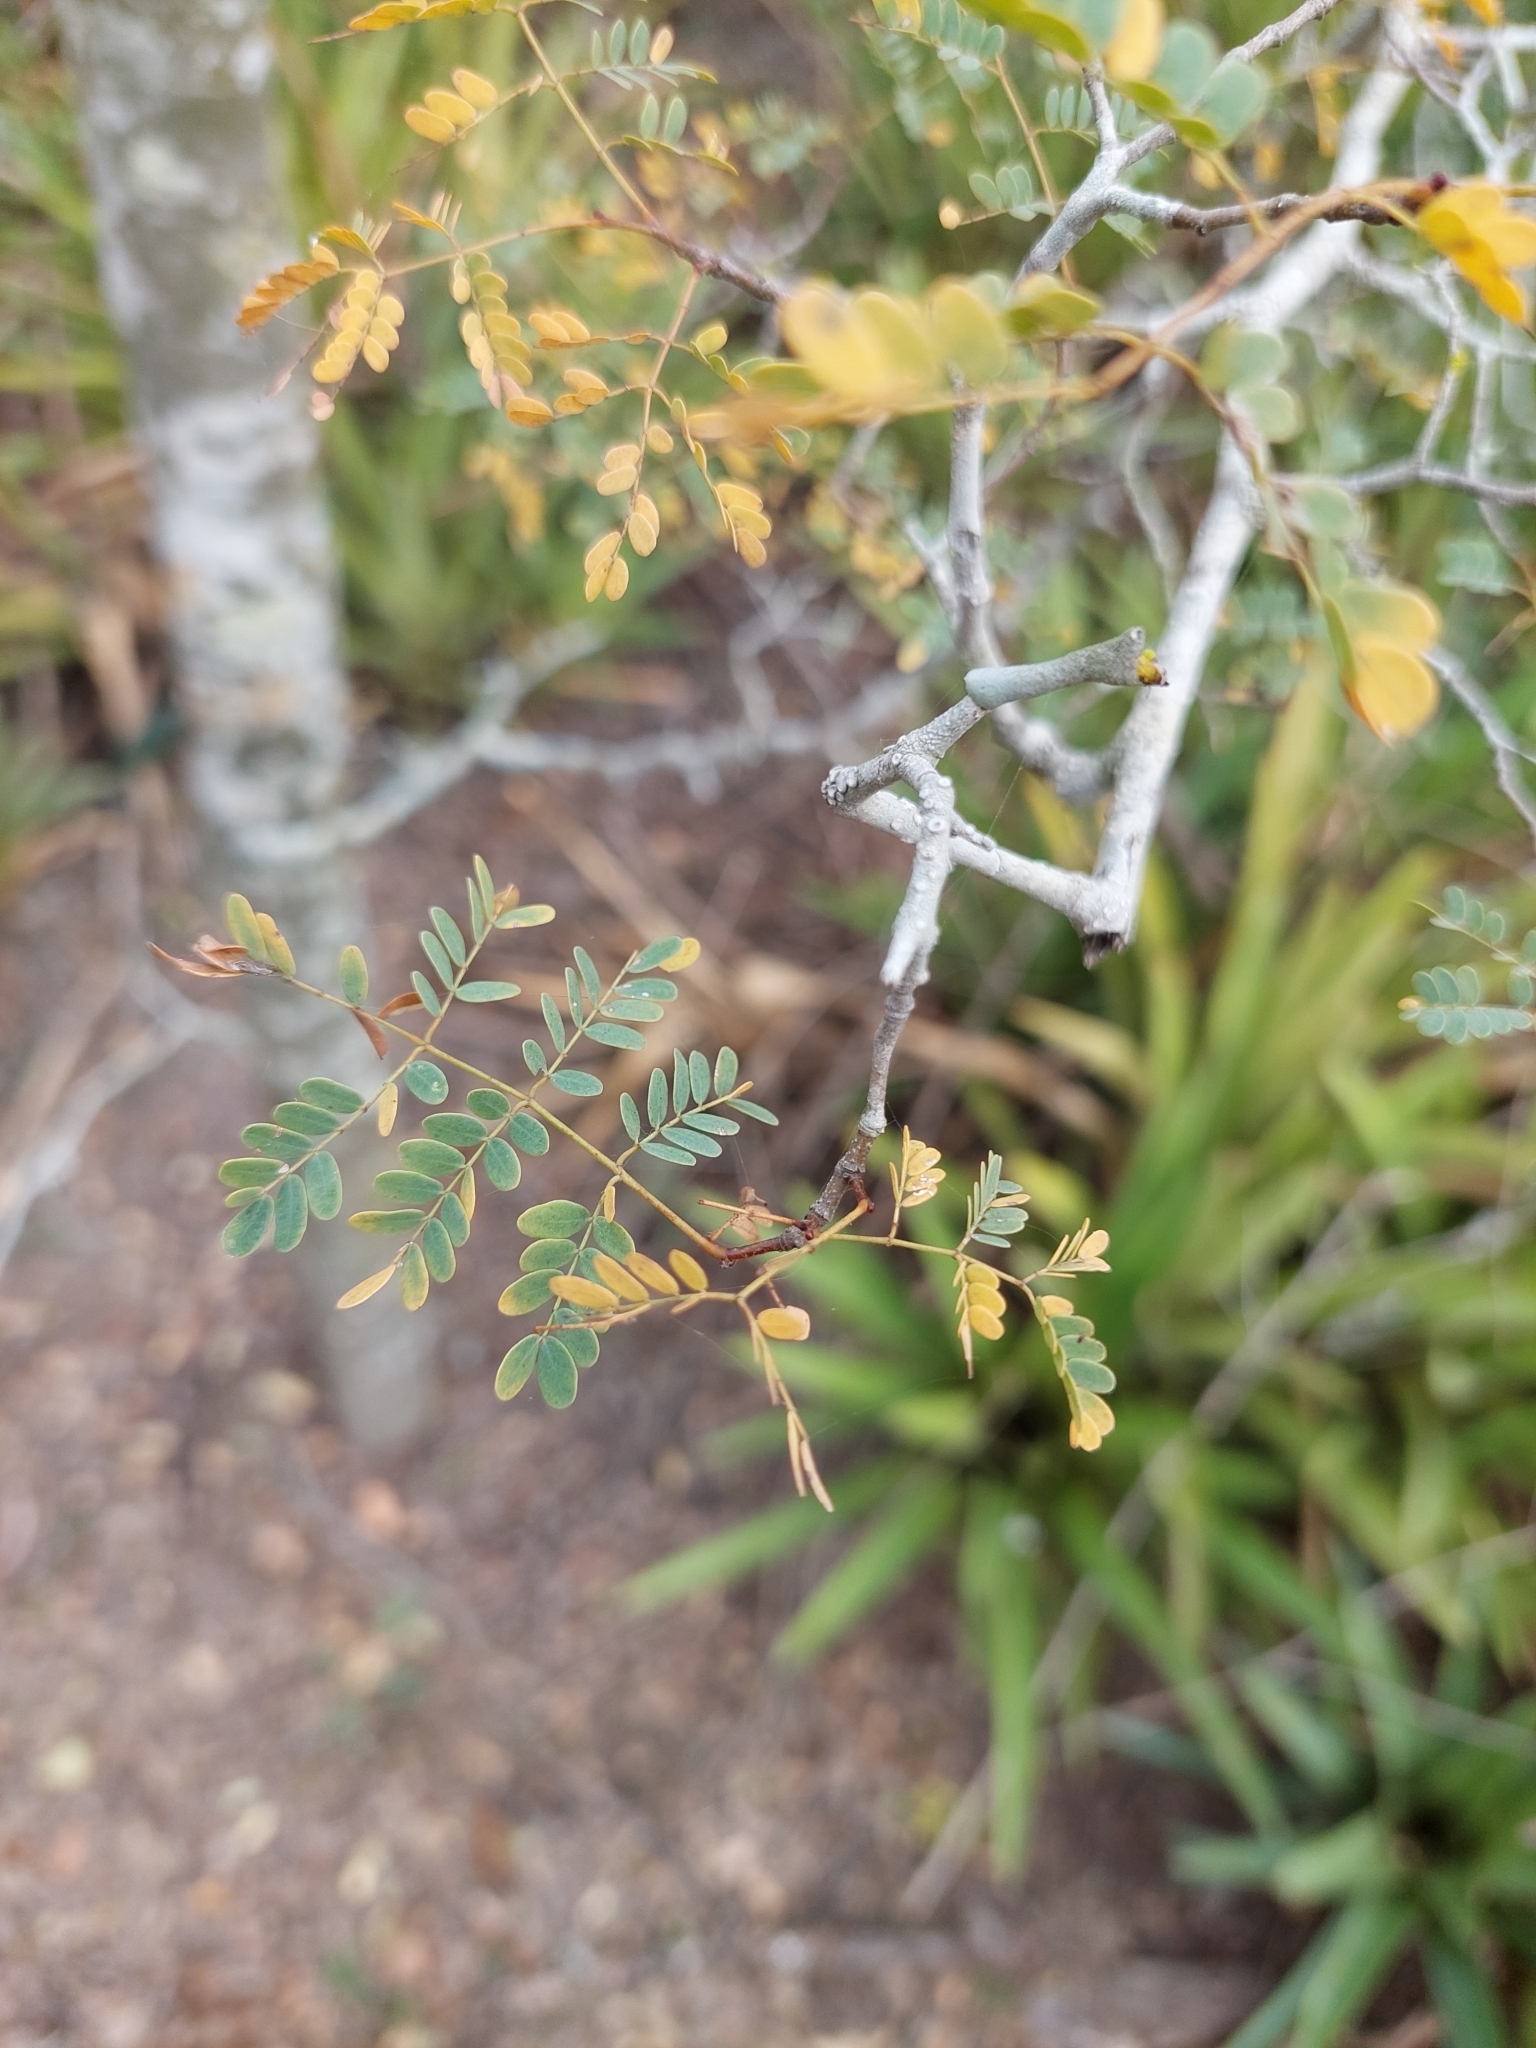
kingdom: Plantae
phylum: Tracheophyta
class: Magnoliopsida
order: Fabales
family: Fabaceae
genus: Libidibia
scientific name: Libidibia paraguariensis
